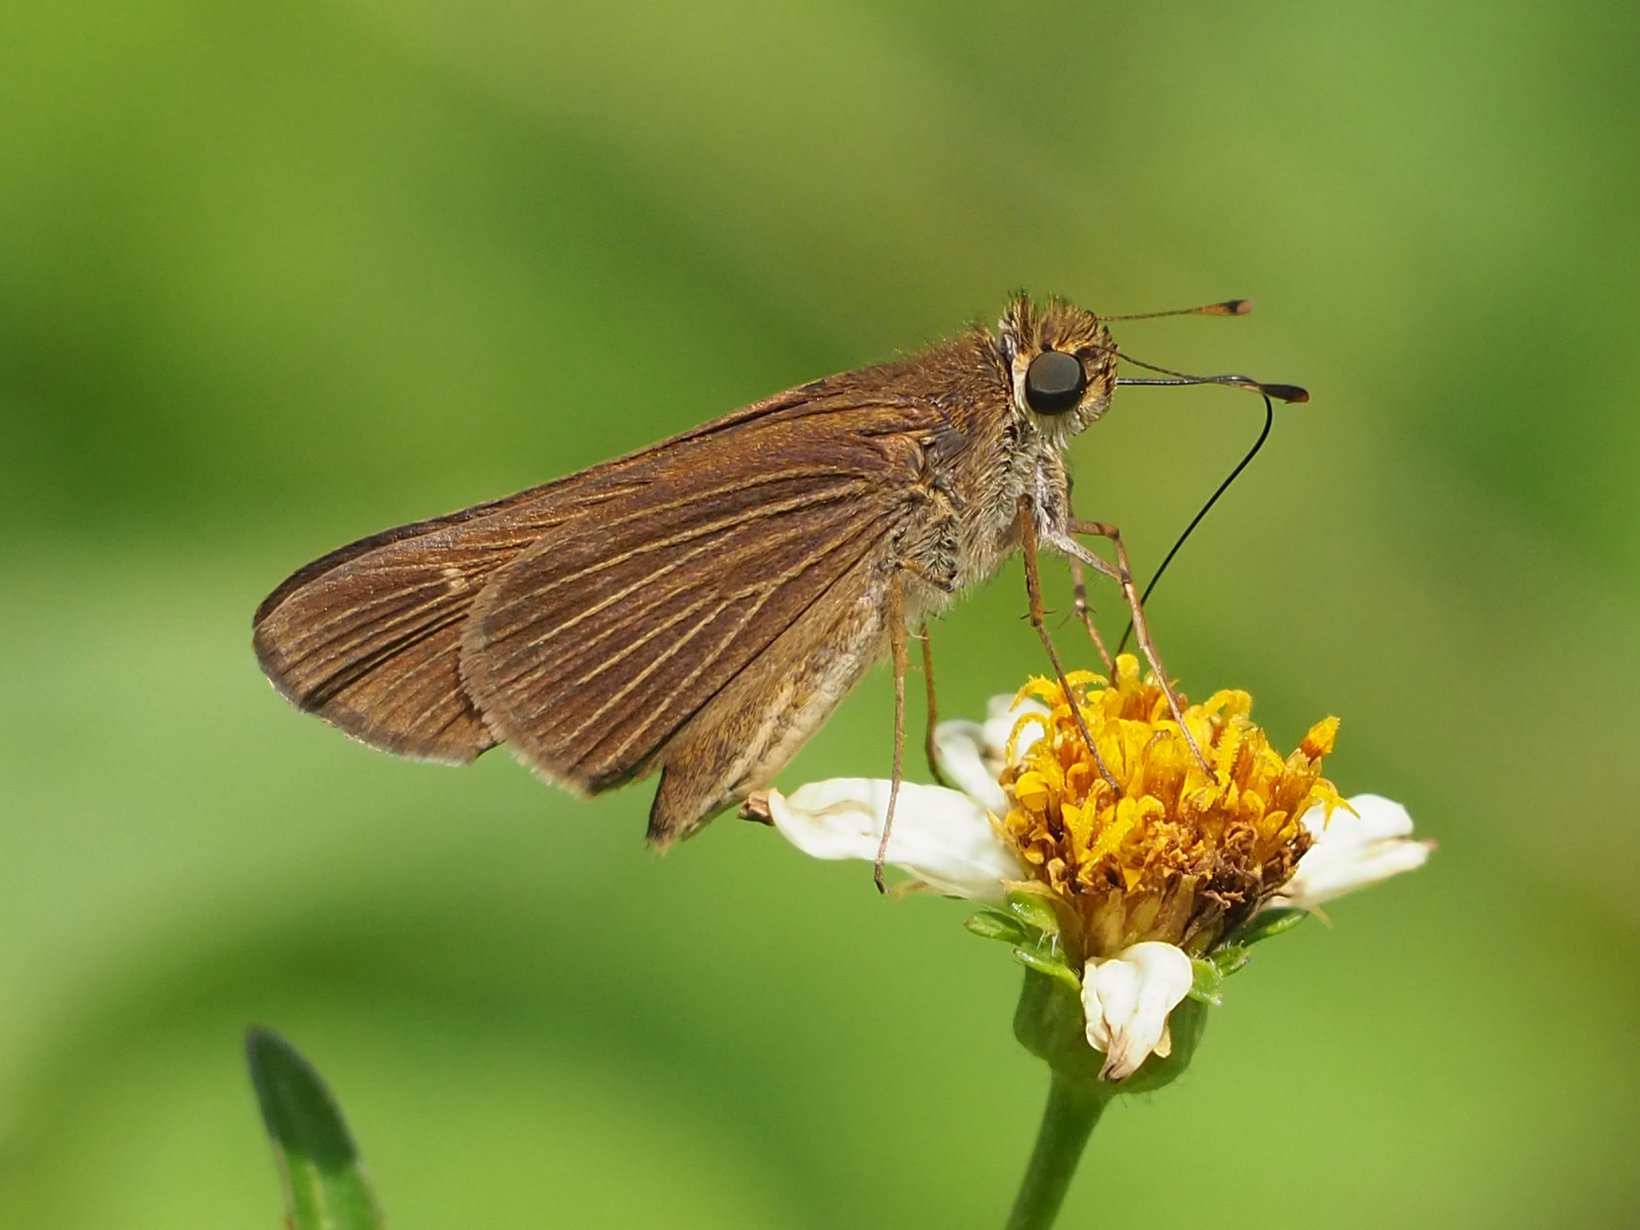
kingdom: Animalia
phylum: Arthropoda
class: Insecta
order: Lepidoptera
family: Hesperiidae
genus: Panoquina
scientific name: Panoquina ocola
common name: Ocola skipper
